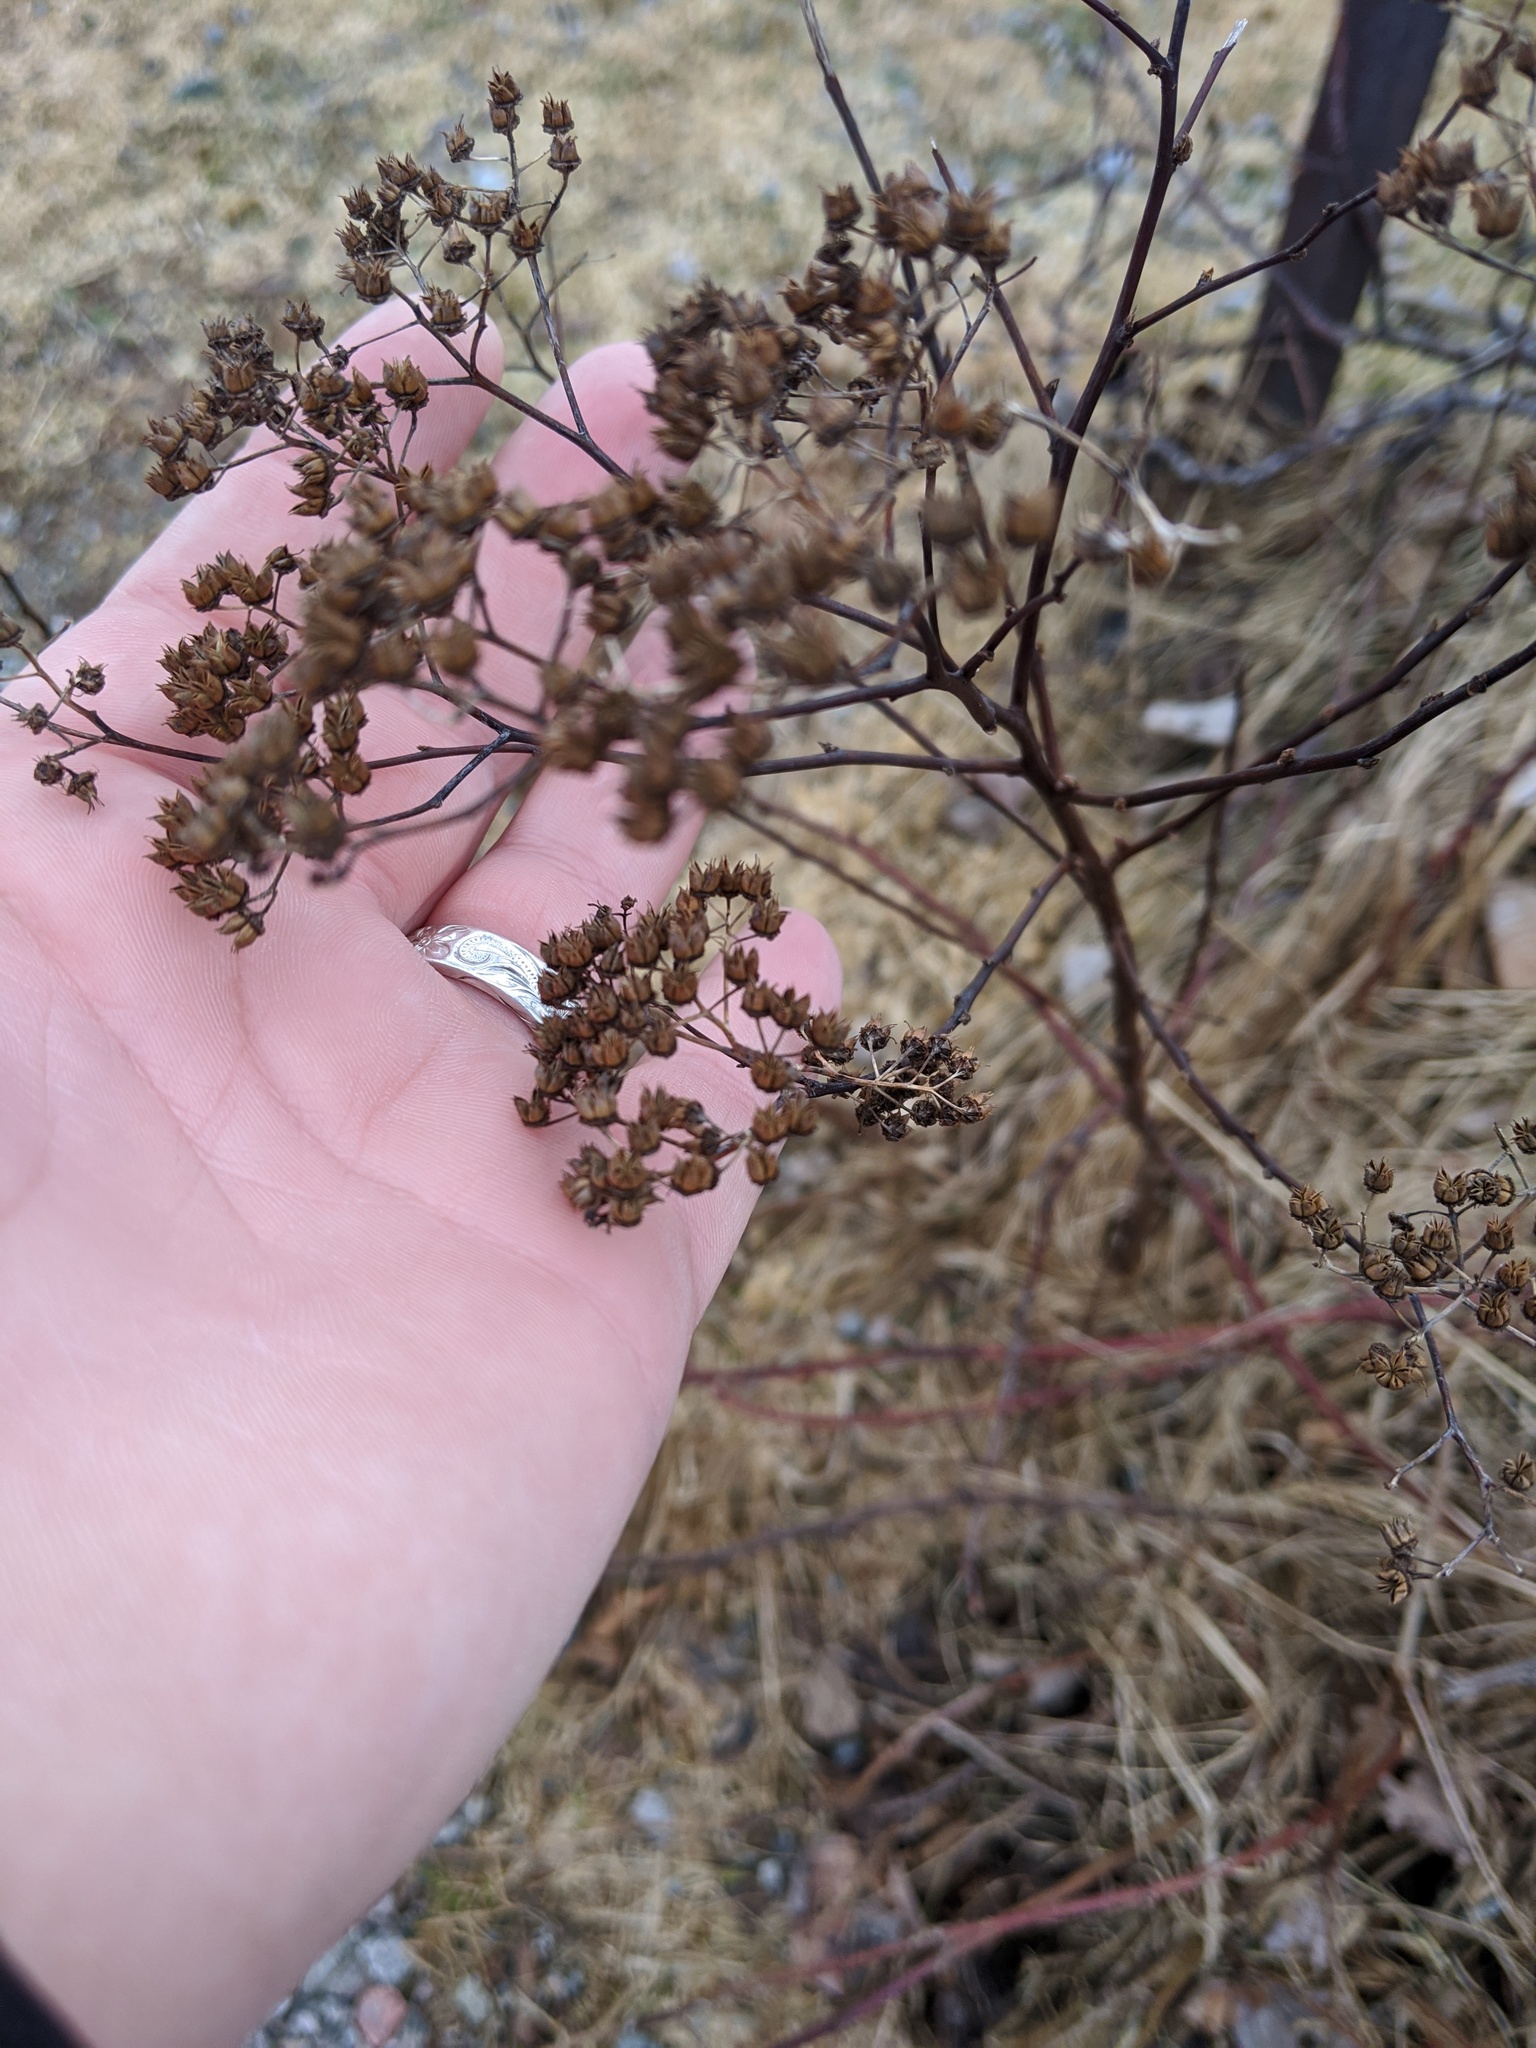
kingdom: Plantae
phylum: Tracheophyta
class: Magnoliopsida
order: Rosales
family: Rosaceae
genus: Spiraea
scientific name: Spiraea japonica
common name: Japanese spiraea
